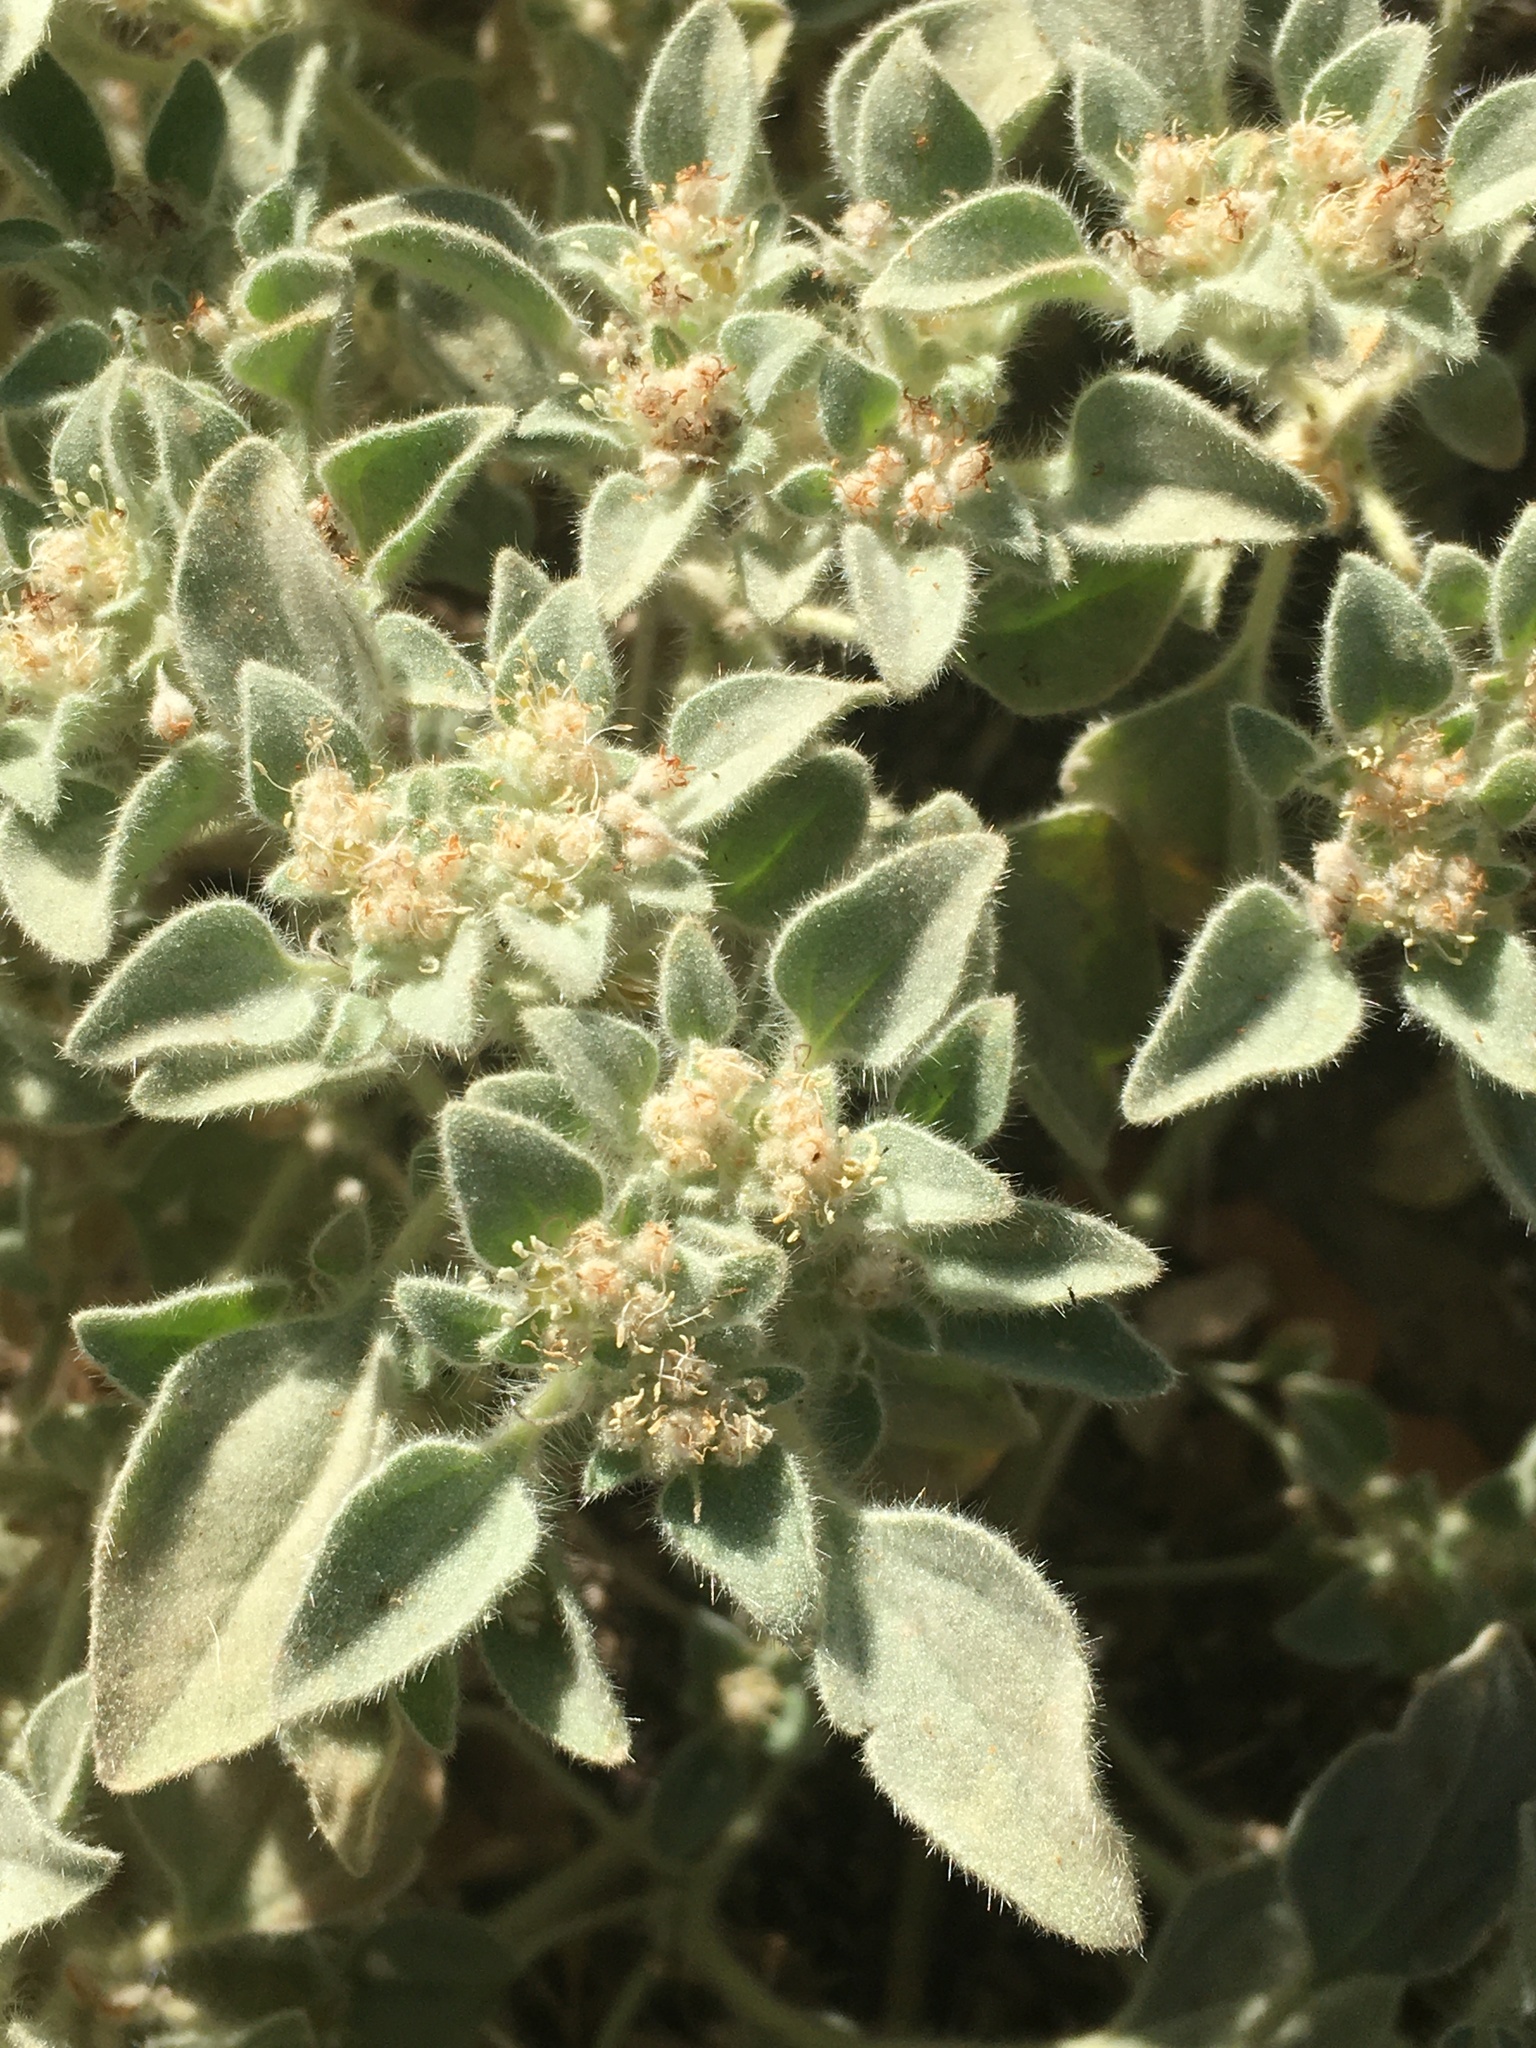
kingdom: Plantae
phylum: Tracheophyta
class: Magnoliopsida
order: Malpighiales
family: Euphorbiaceae
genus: Croton
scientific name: Croton setiger
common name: Dove weed
